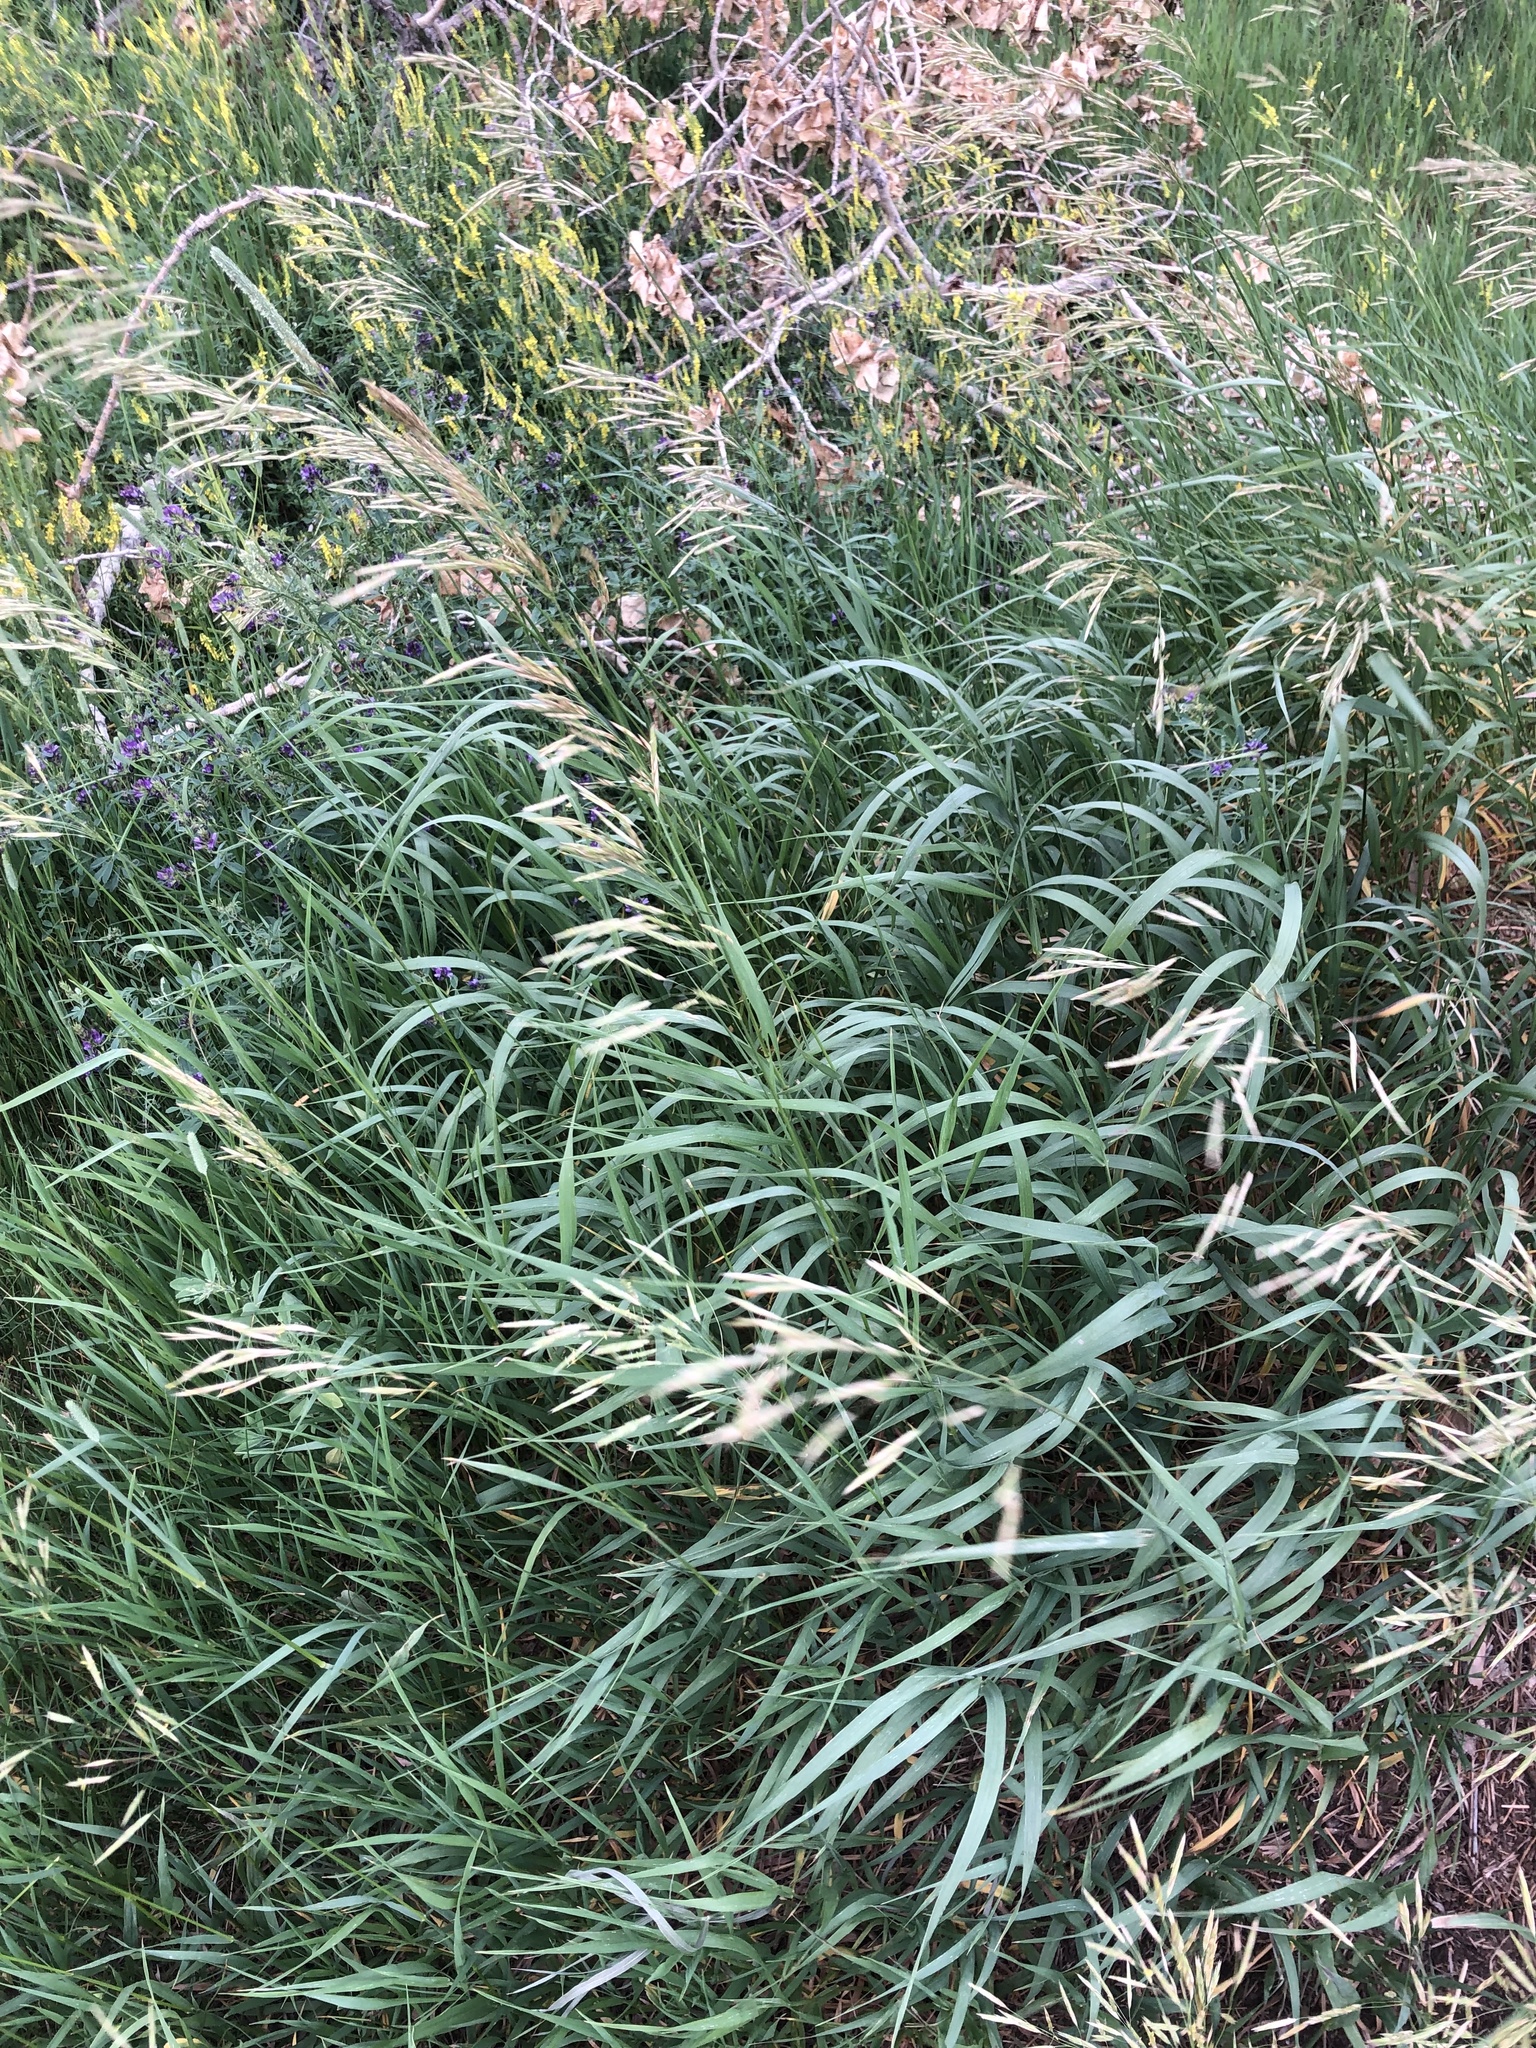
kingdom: Plantae
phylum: Tracheophyta
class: Liliopsida
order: Poales
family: Poaceae
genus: Bromus
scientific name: Bromus inermis
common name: Smooth brome
